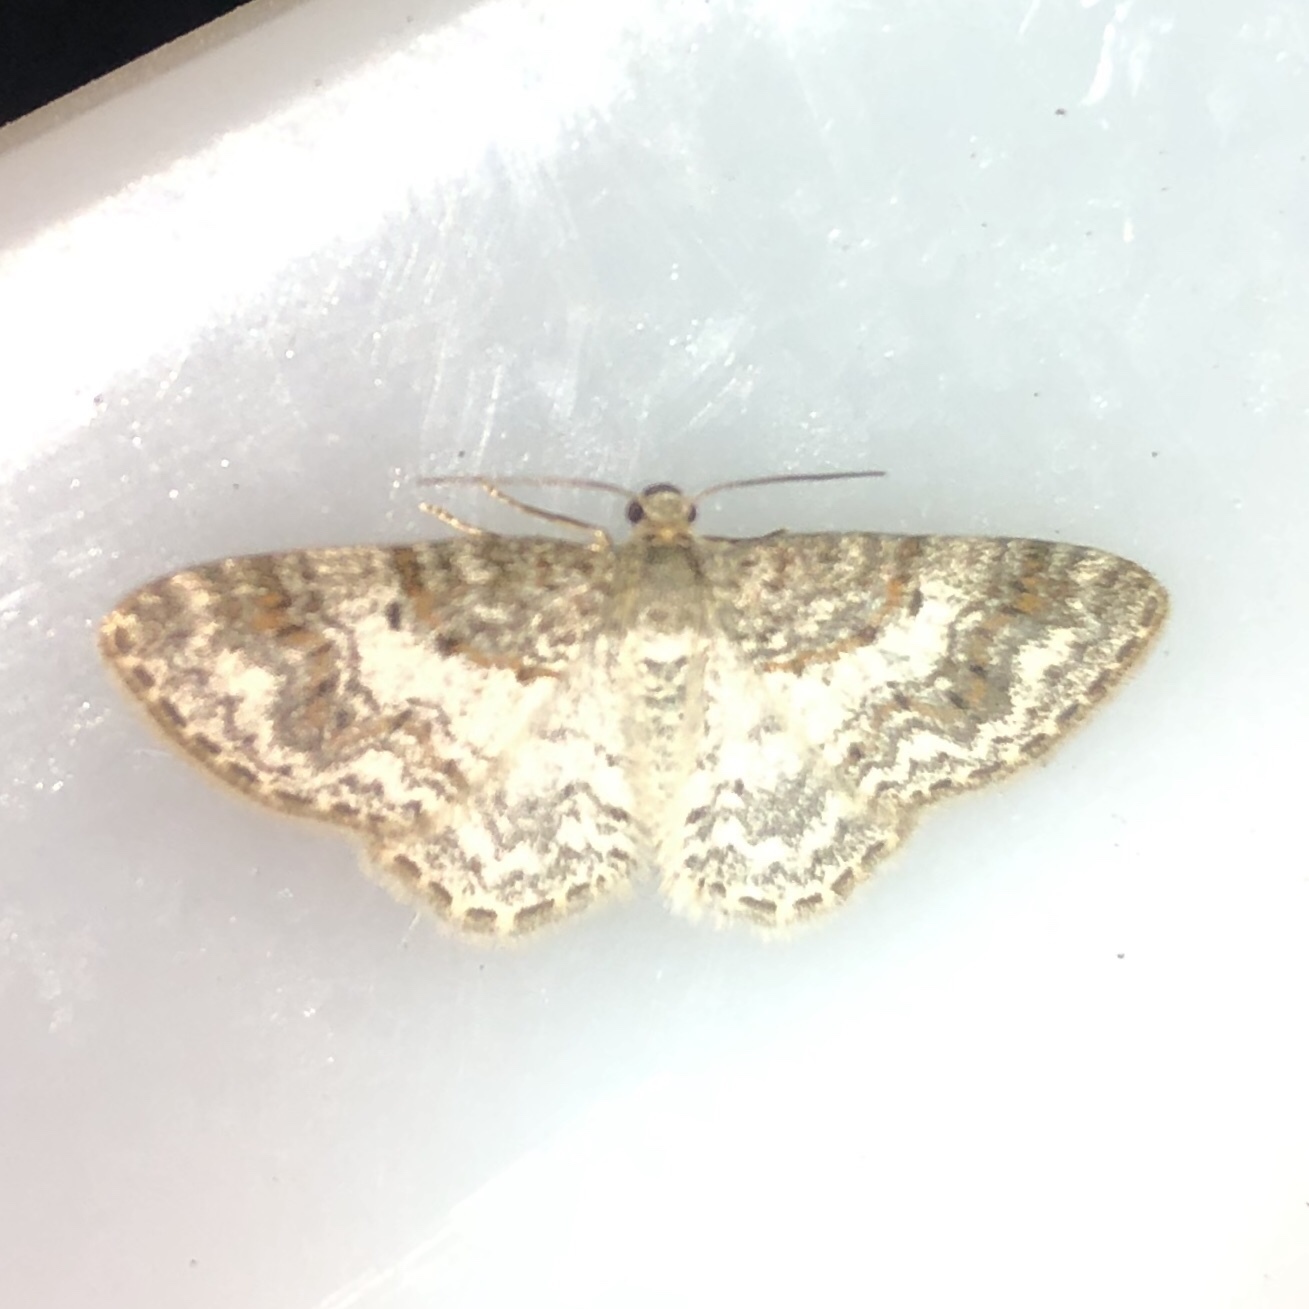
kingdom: Animalia
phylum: Arthropoda
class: Insecta
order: Lepidoptera
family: Geometridae
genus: Hydrelia
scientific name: Hydrelia inornata
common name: Unadorned carpet moth
